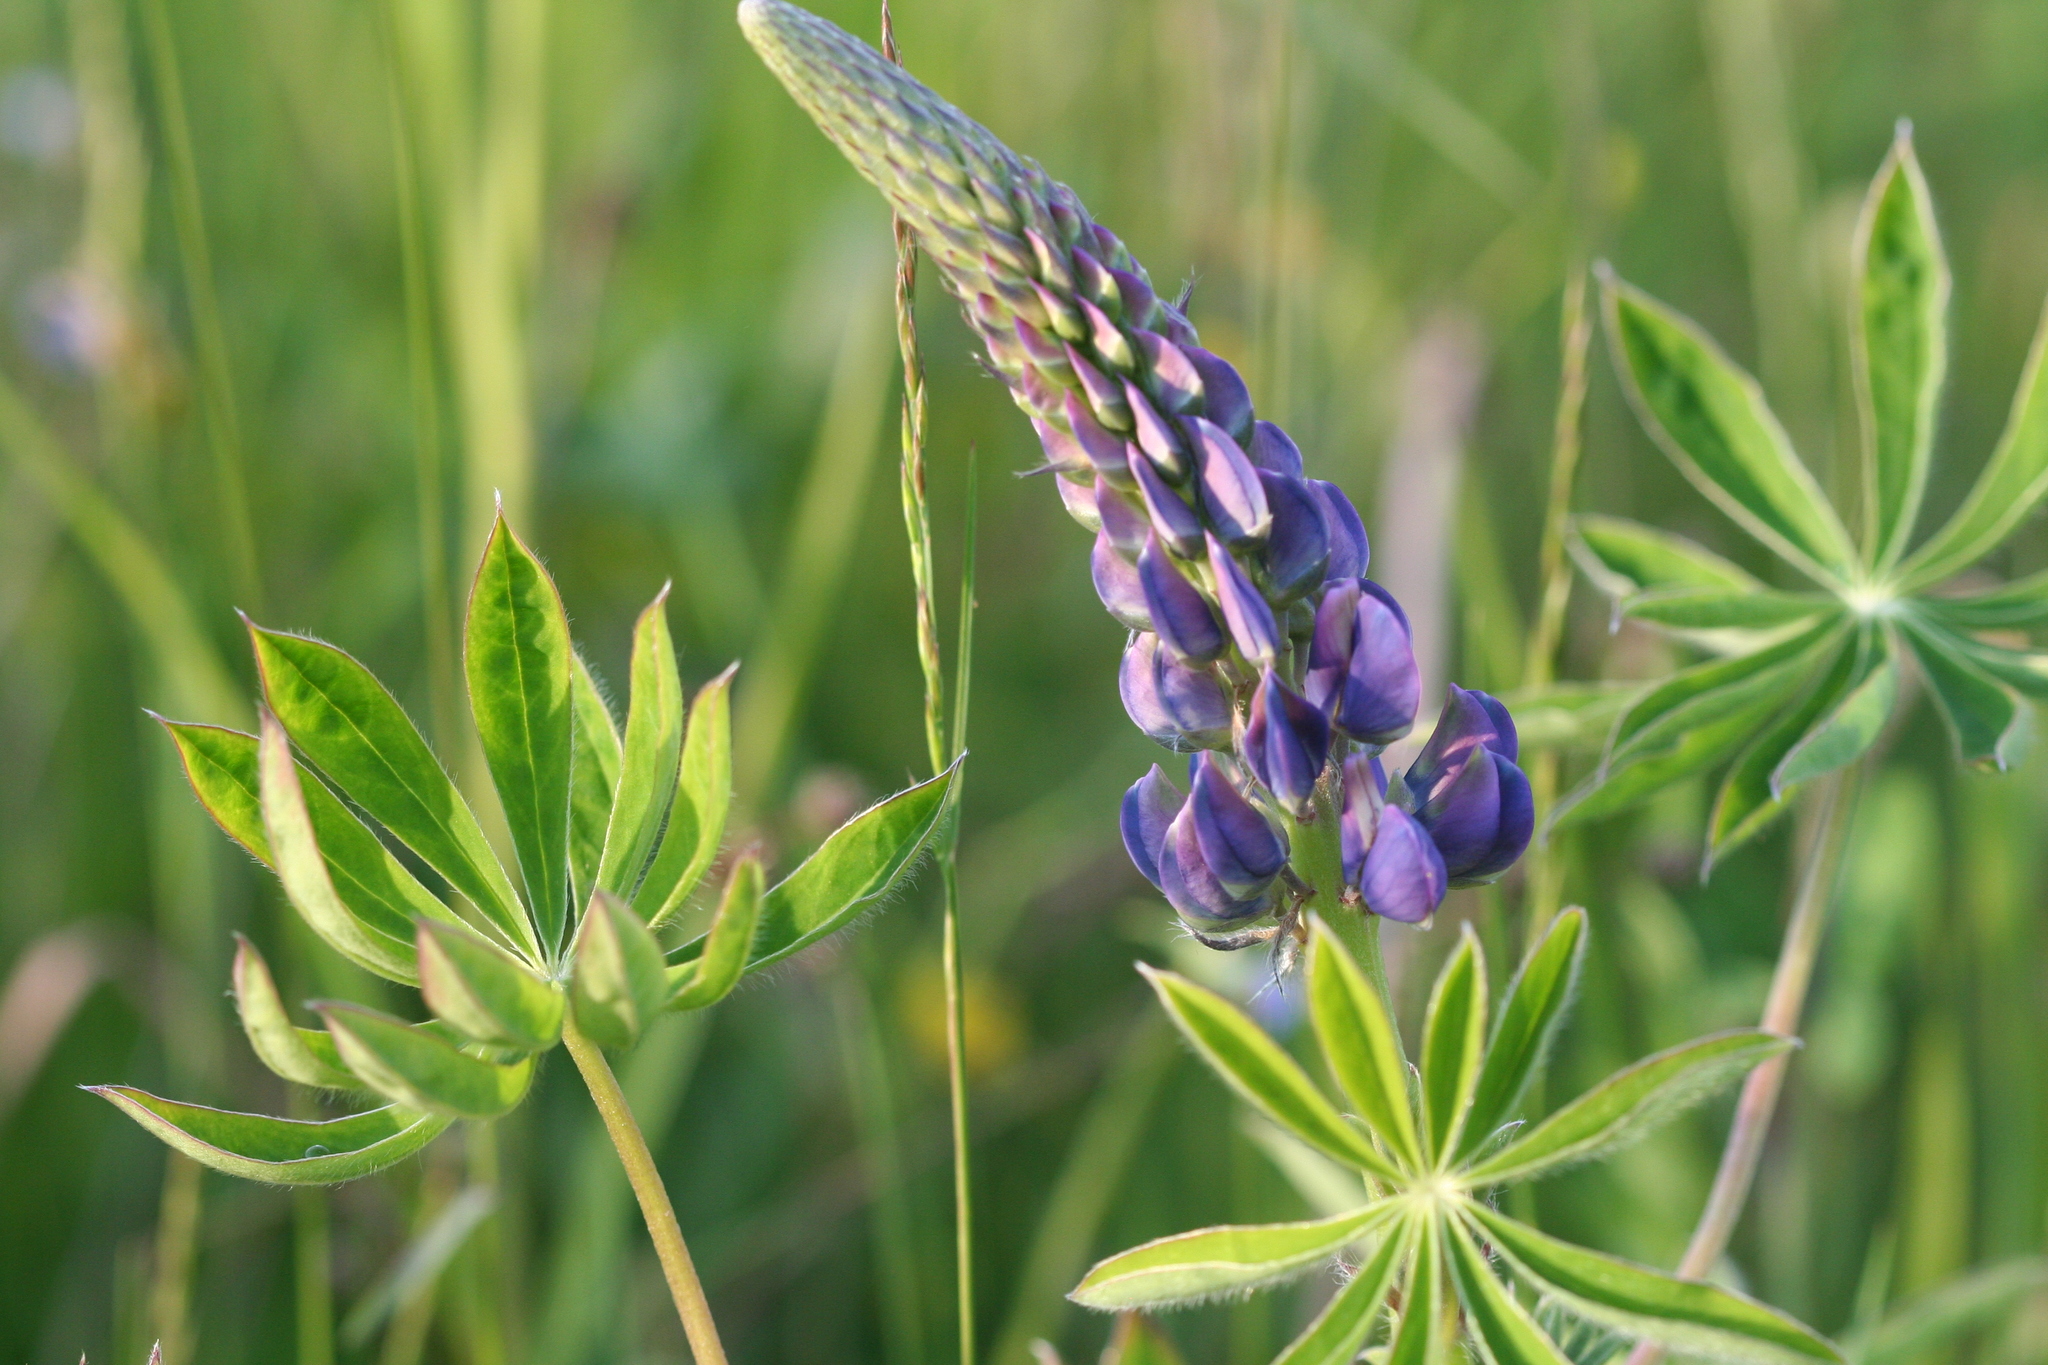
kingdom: Plantae
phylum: Tracheophyta
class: Magnoliopsida
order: Fabales
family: Fabaceae
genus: Lupinus
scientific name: Lupinus polyphyllus
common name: Garden lupin
